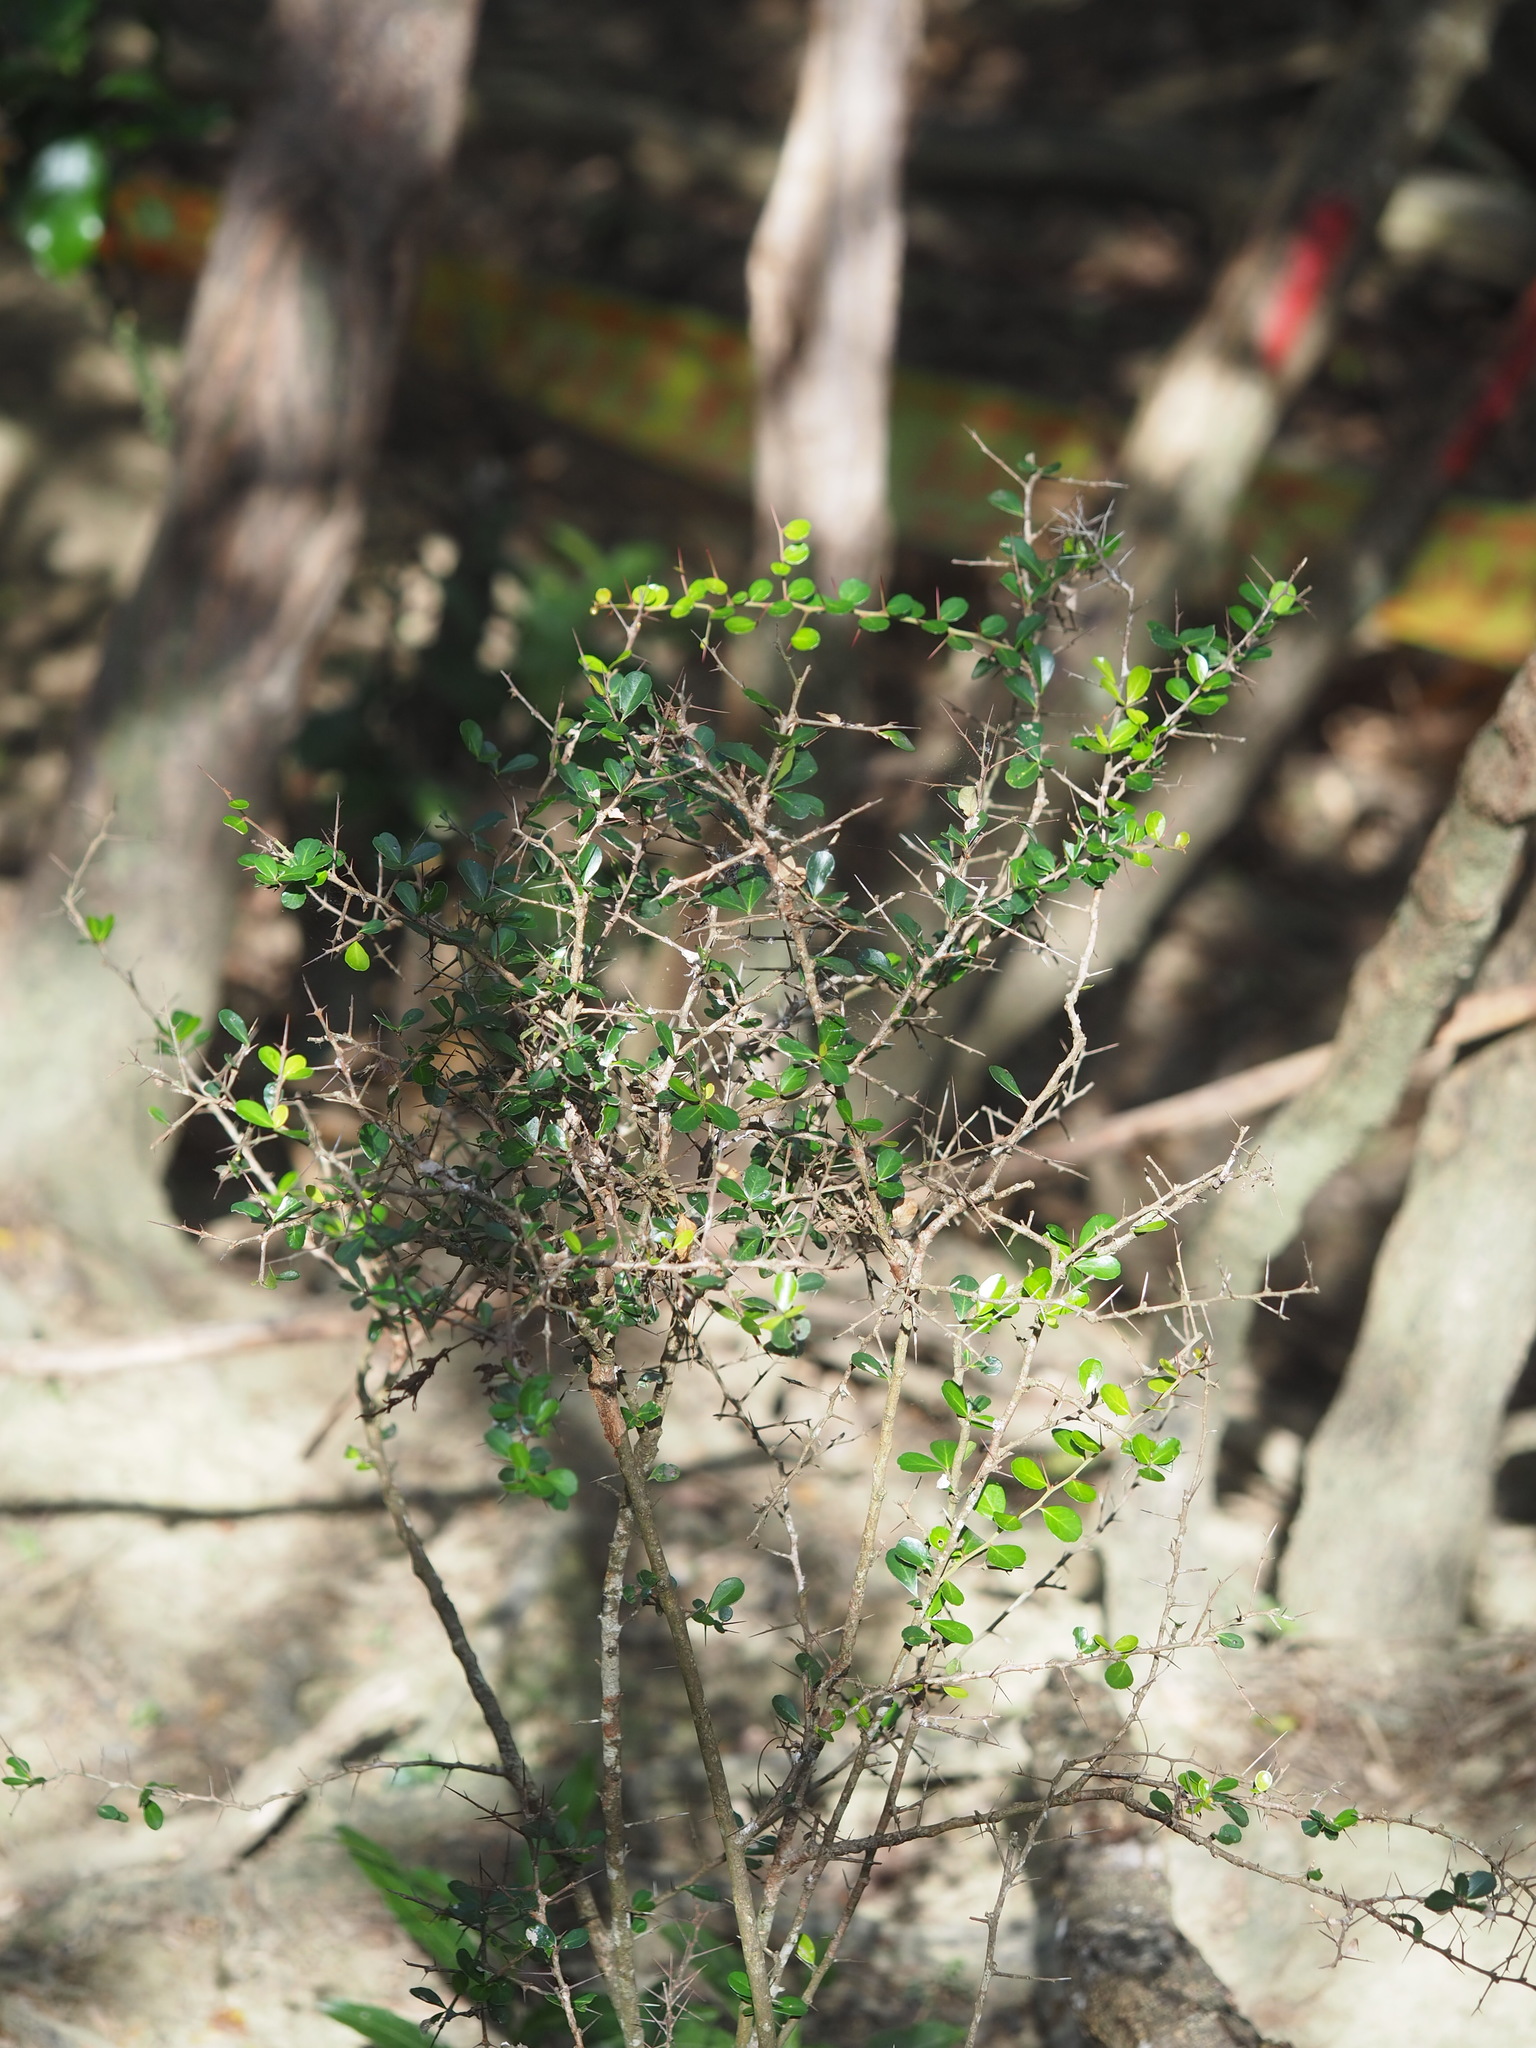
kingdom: Plantae
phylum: Tracheophyta
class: Magnoliopsida
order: Celastrales
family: Celastraceae
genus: Gymnosporia
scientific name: Gymnosporia diversifolia
